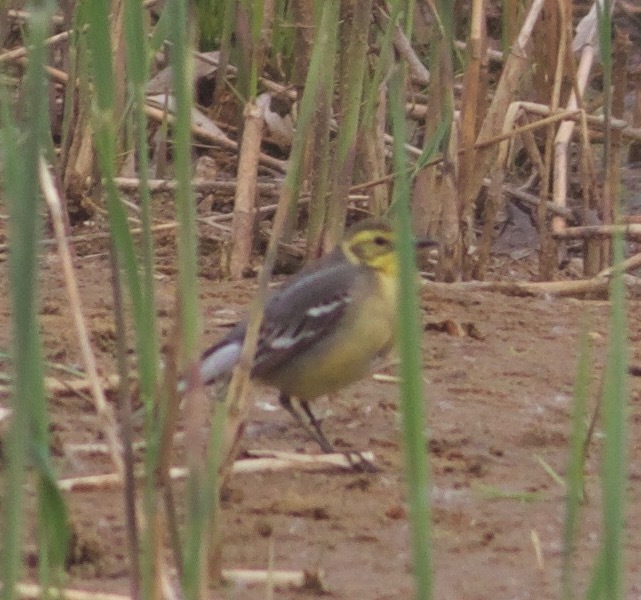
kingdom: Animalia
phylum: Chordata
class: Aves
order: Passeriformes
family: Motacillidae
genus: Motacilla
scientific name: Motacilla citreola
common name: Citrine wagtail
